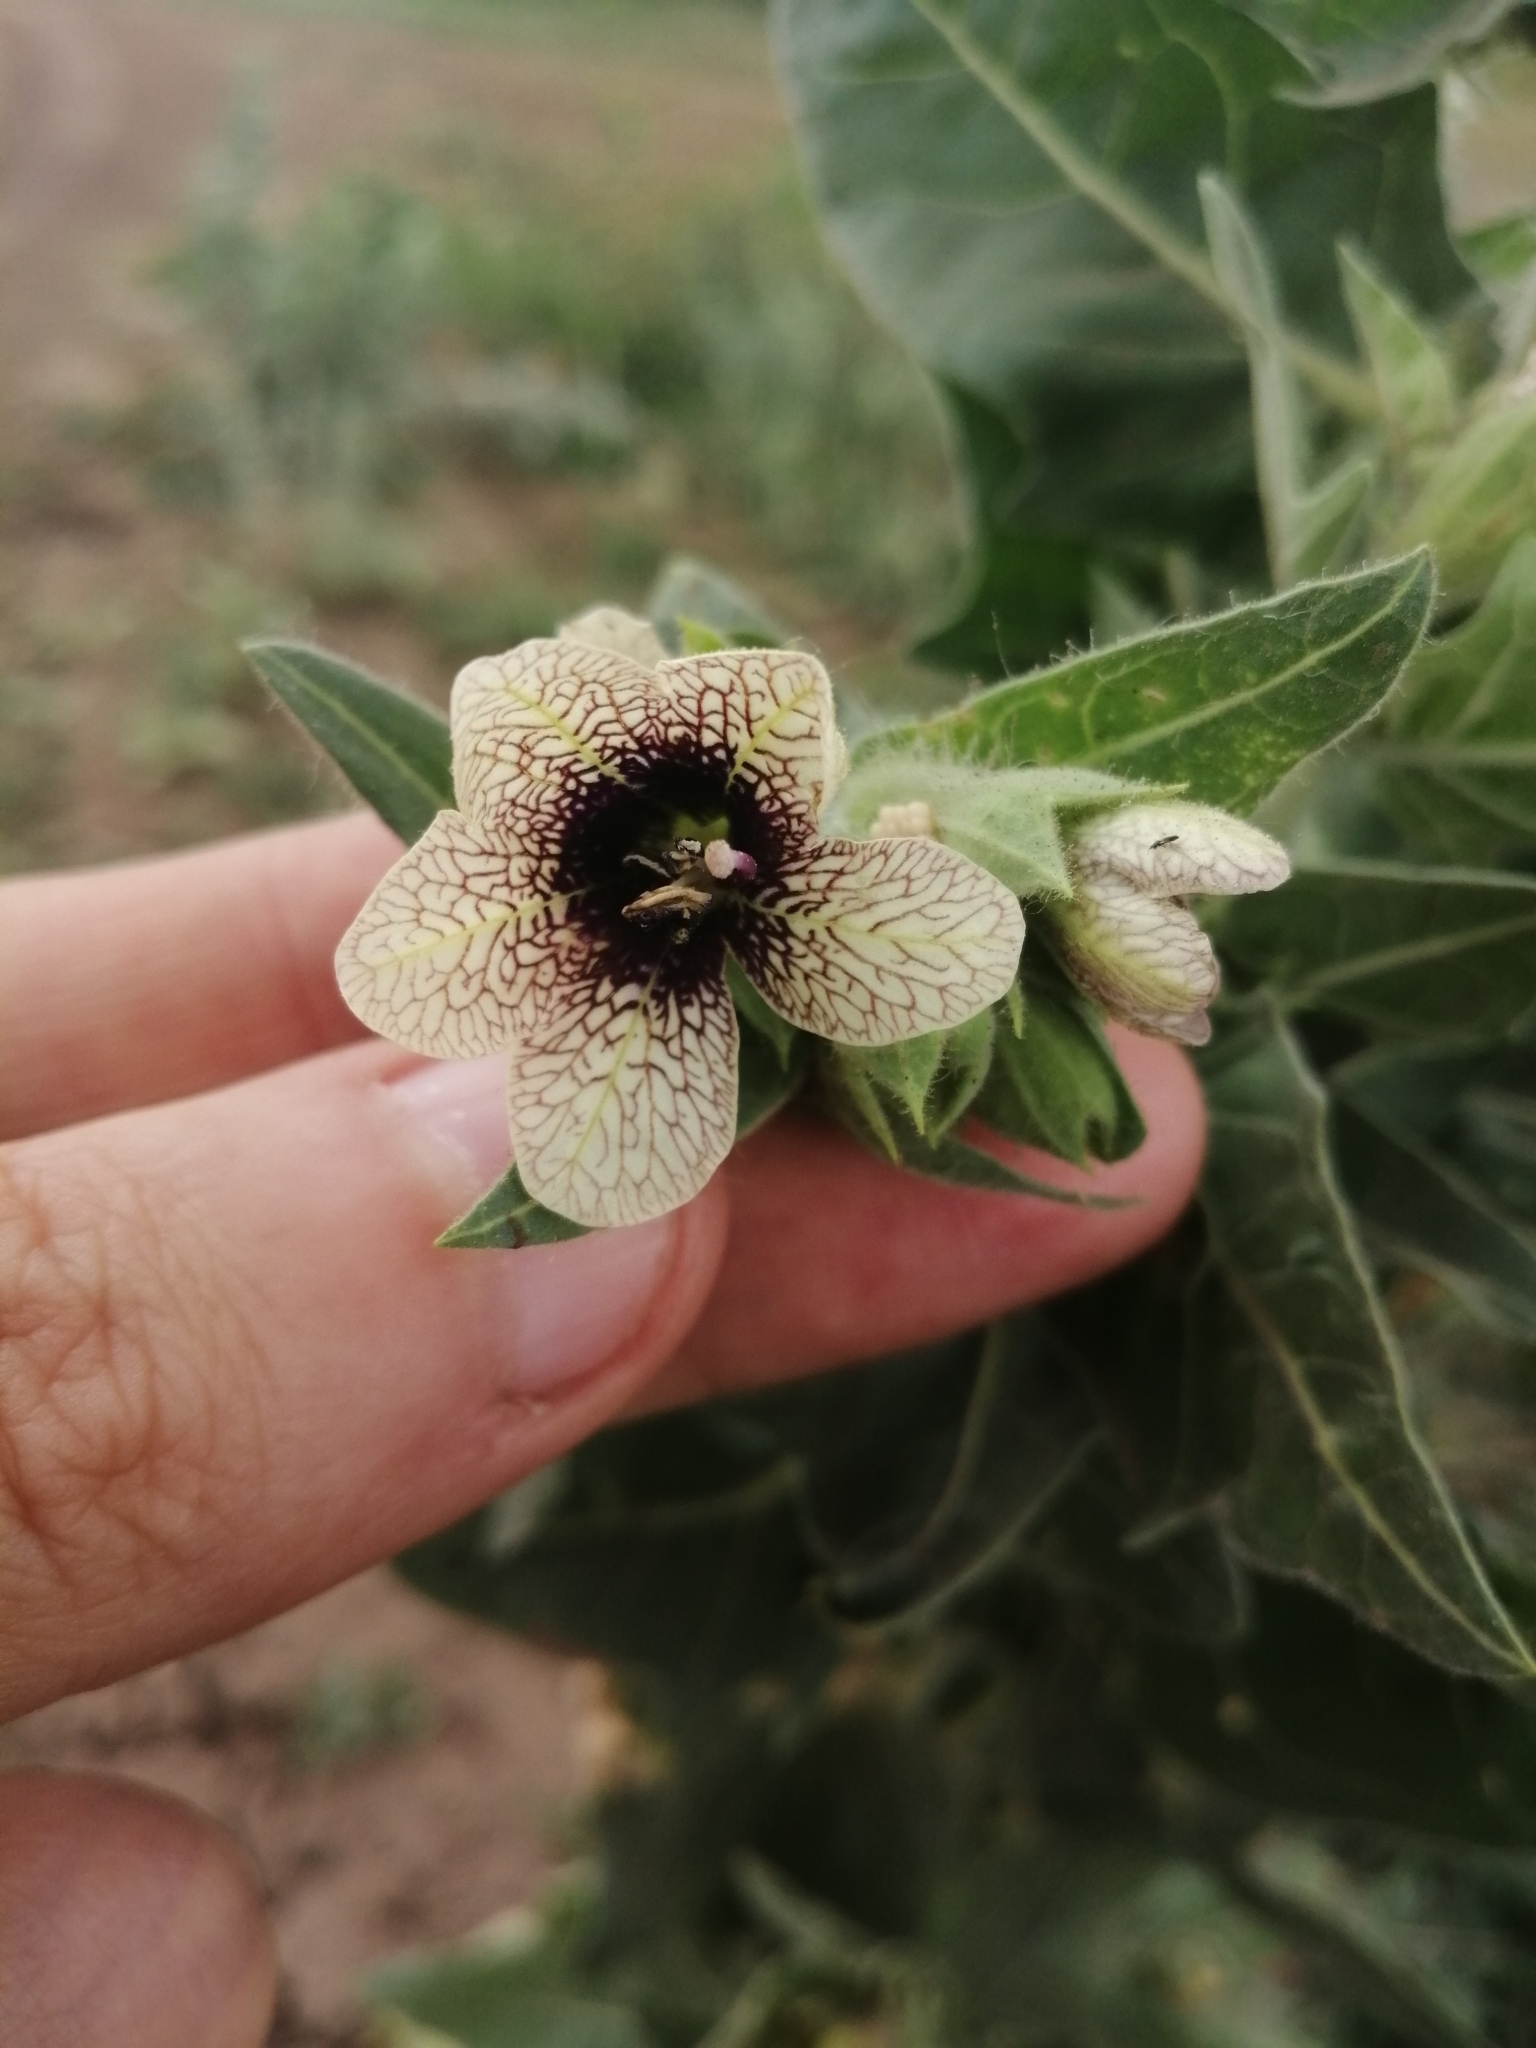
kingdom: Plantae
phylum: Tracheophyta
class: Magnoliopsida
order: Solanales
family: Solanaceae
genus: Hyoscyamus
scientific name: Hyoscyamus niger
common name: Henbane
